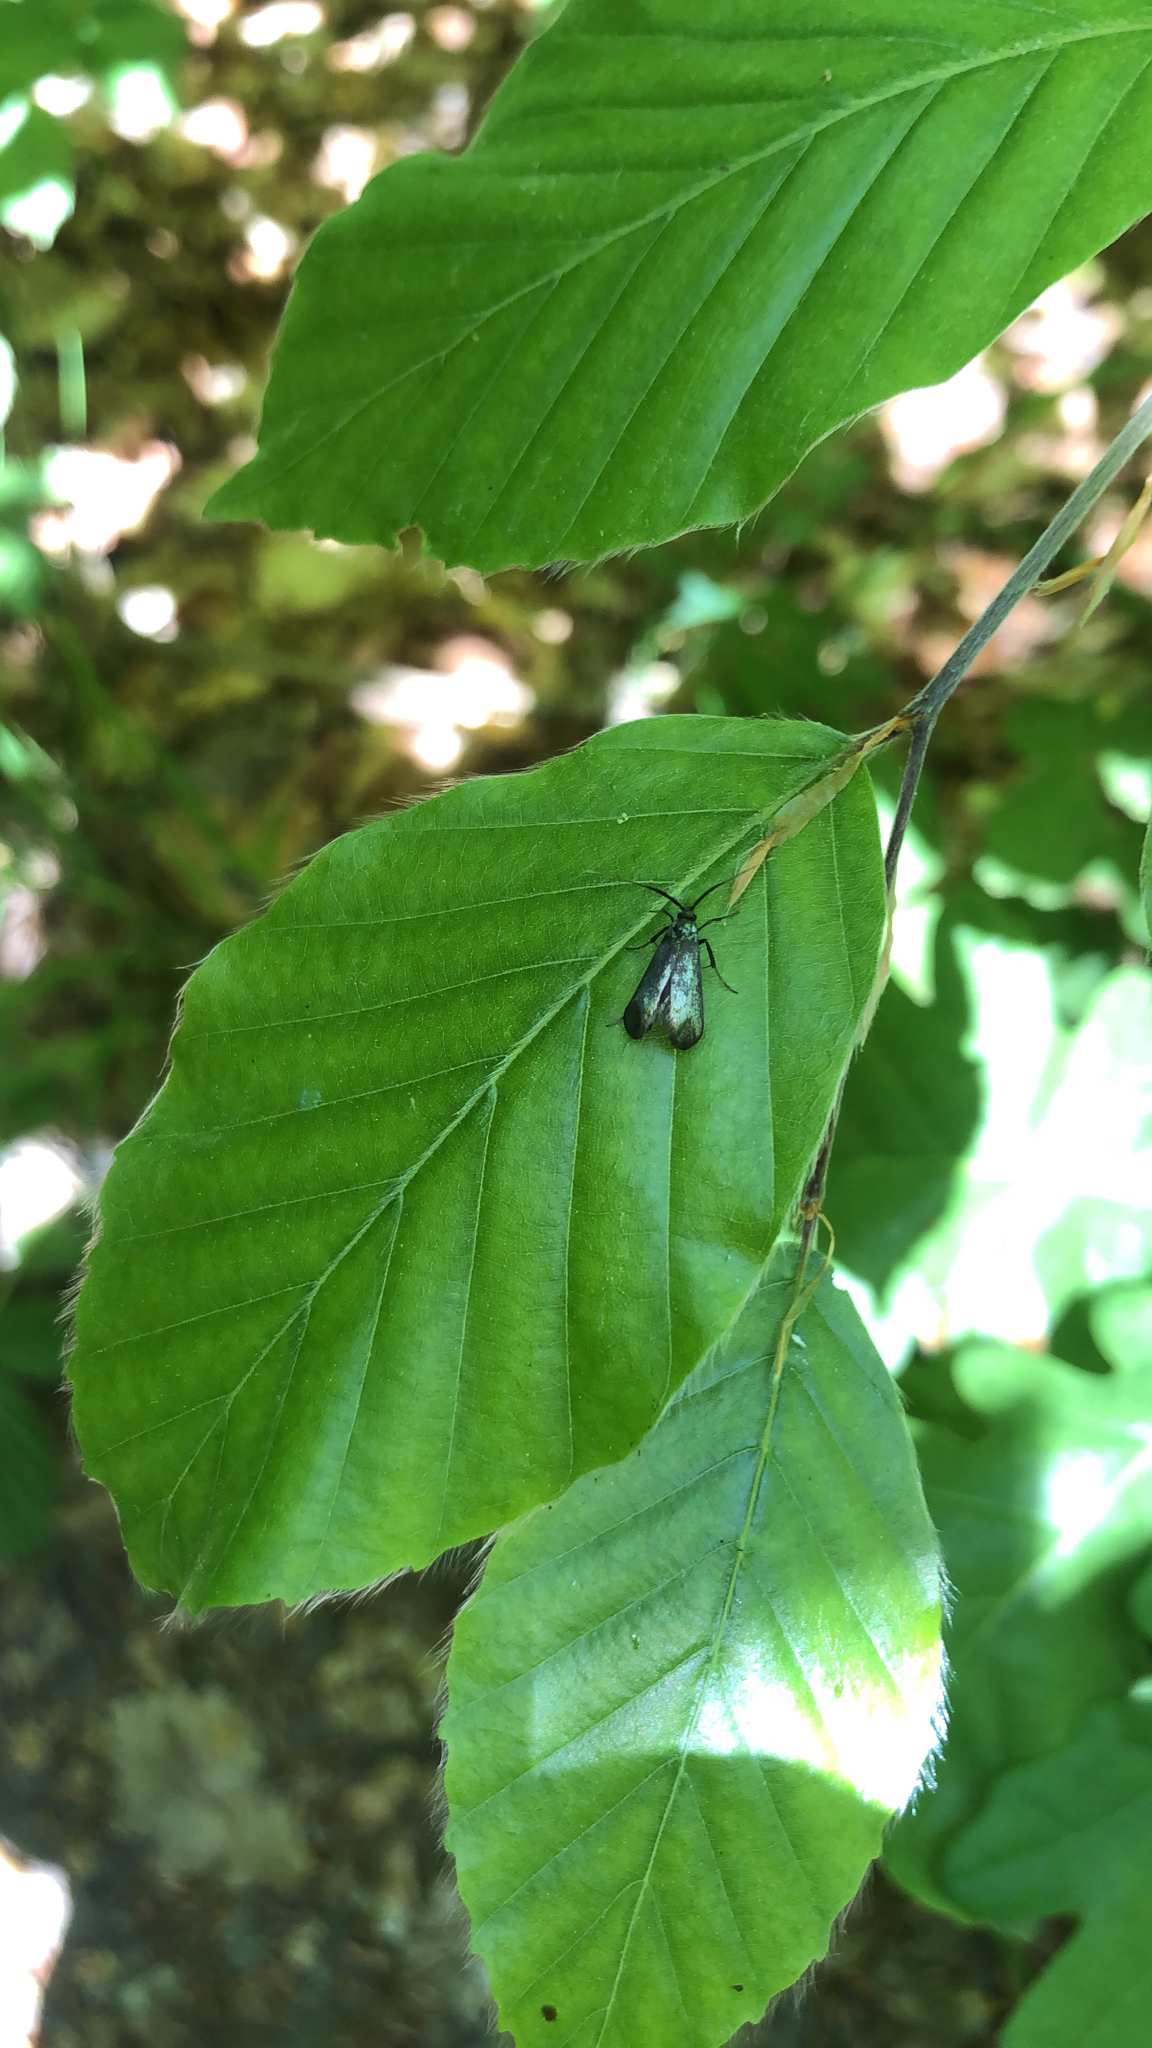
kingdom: Animalia
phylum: Arthropoda
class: Insecta
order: Lepidoptera
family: Adelidae
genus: Adela
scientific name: Adela viridella
